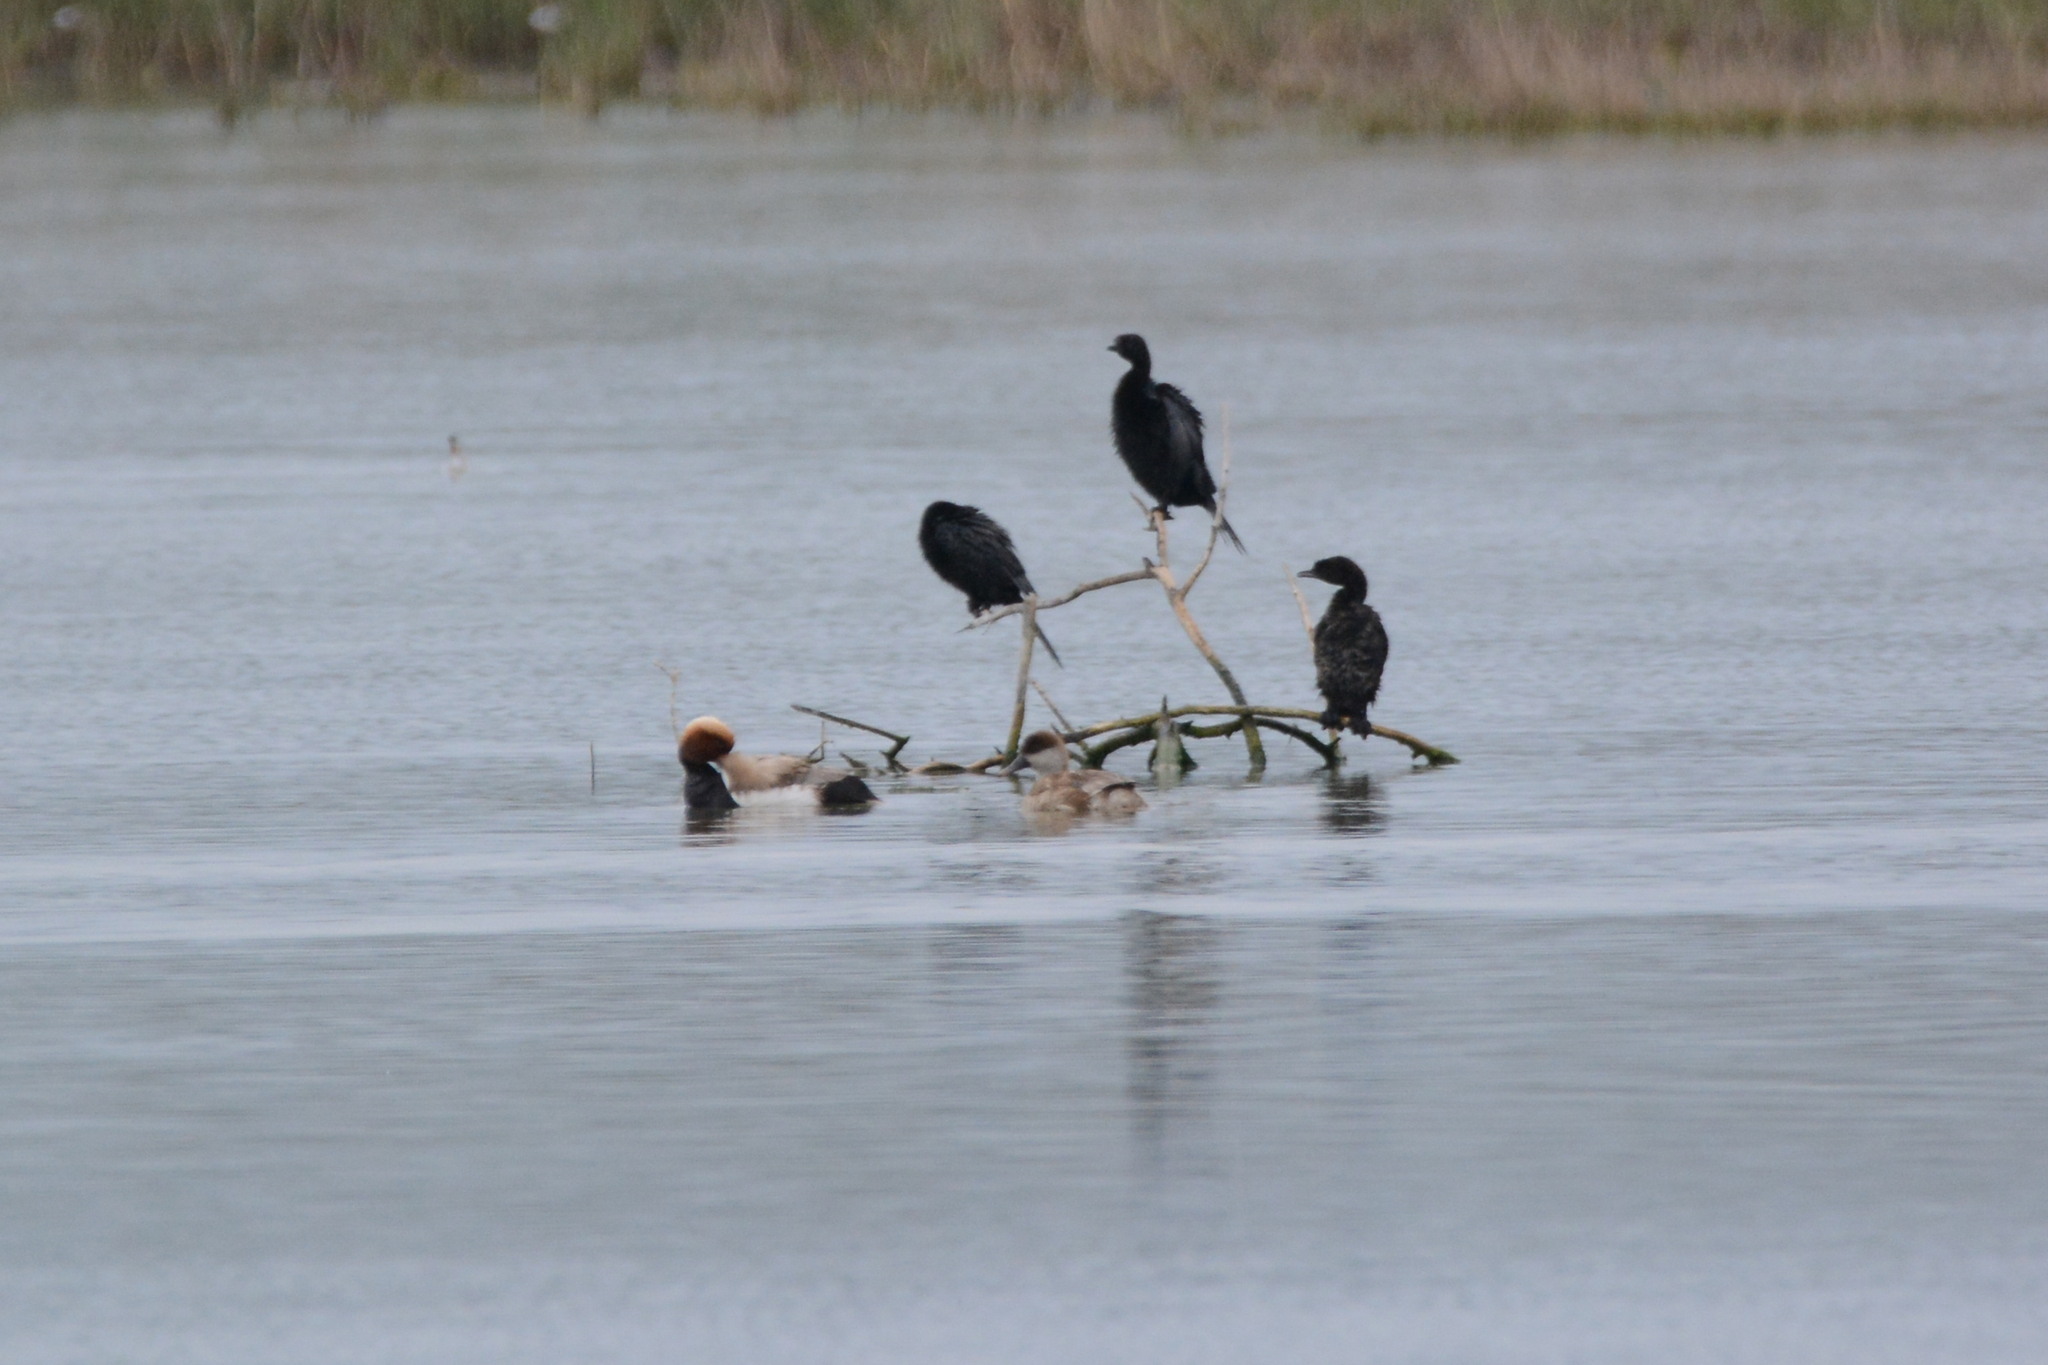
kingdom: Animalia
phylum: Chordata
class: Aves
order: Suliformes
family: Phalacrocoracidae
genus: Microcarbo
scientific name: Microcarbo pygmaeus
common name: Pygmy cormorant
